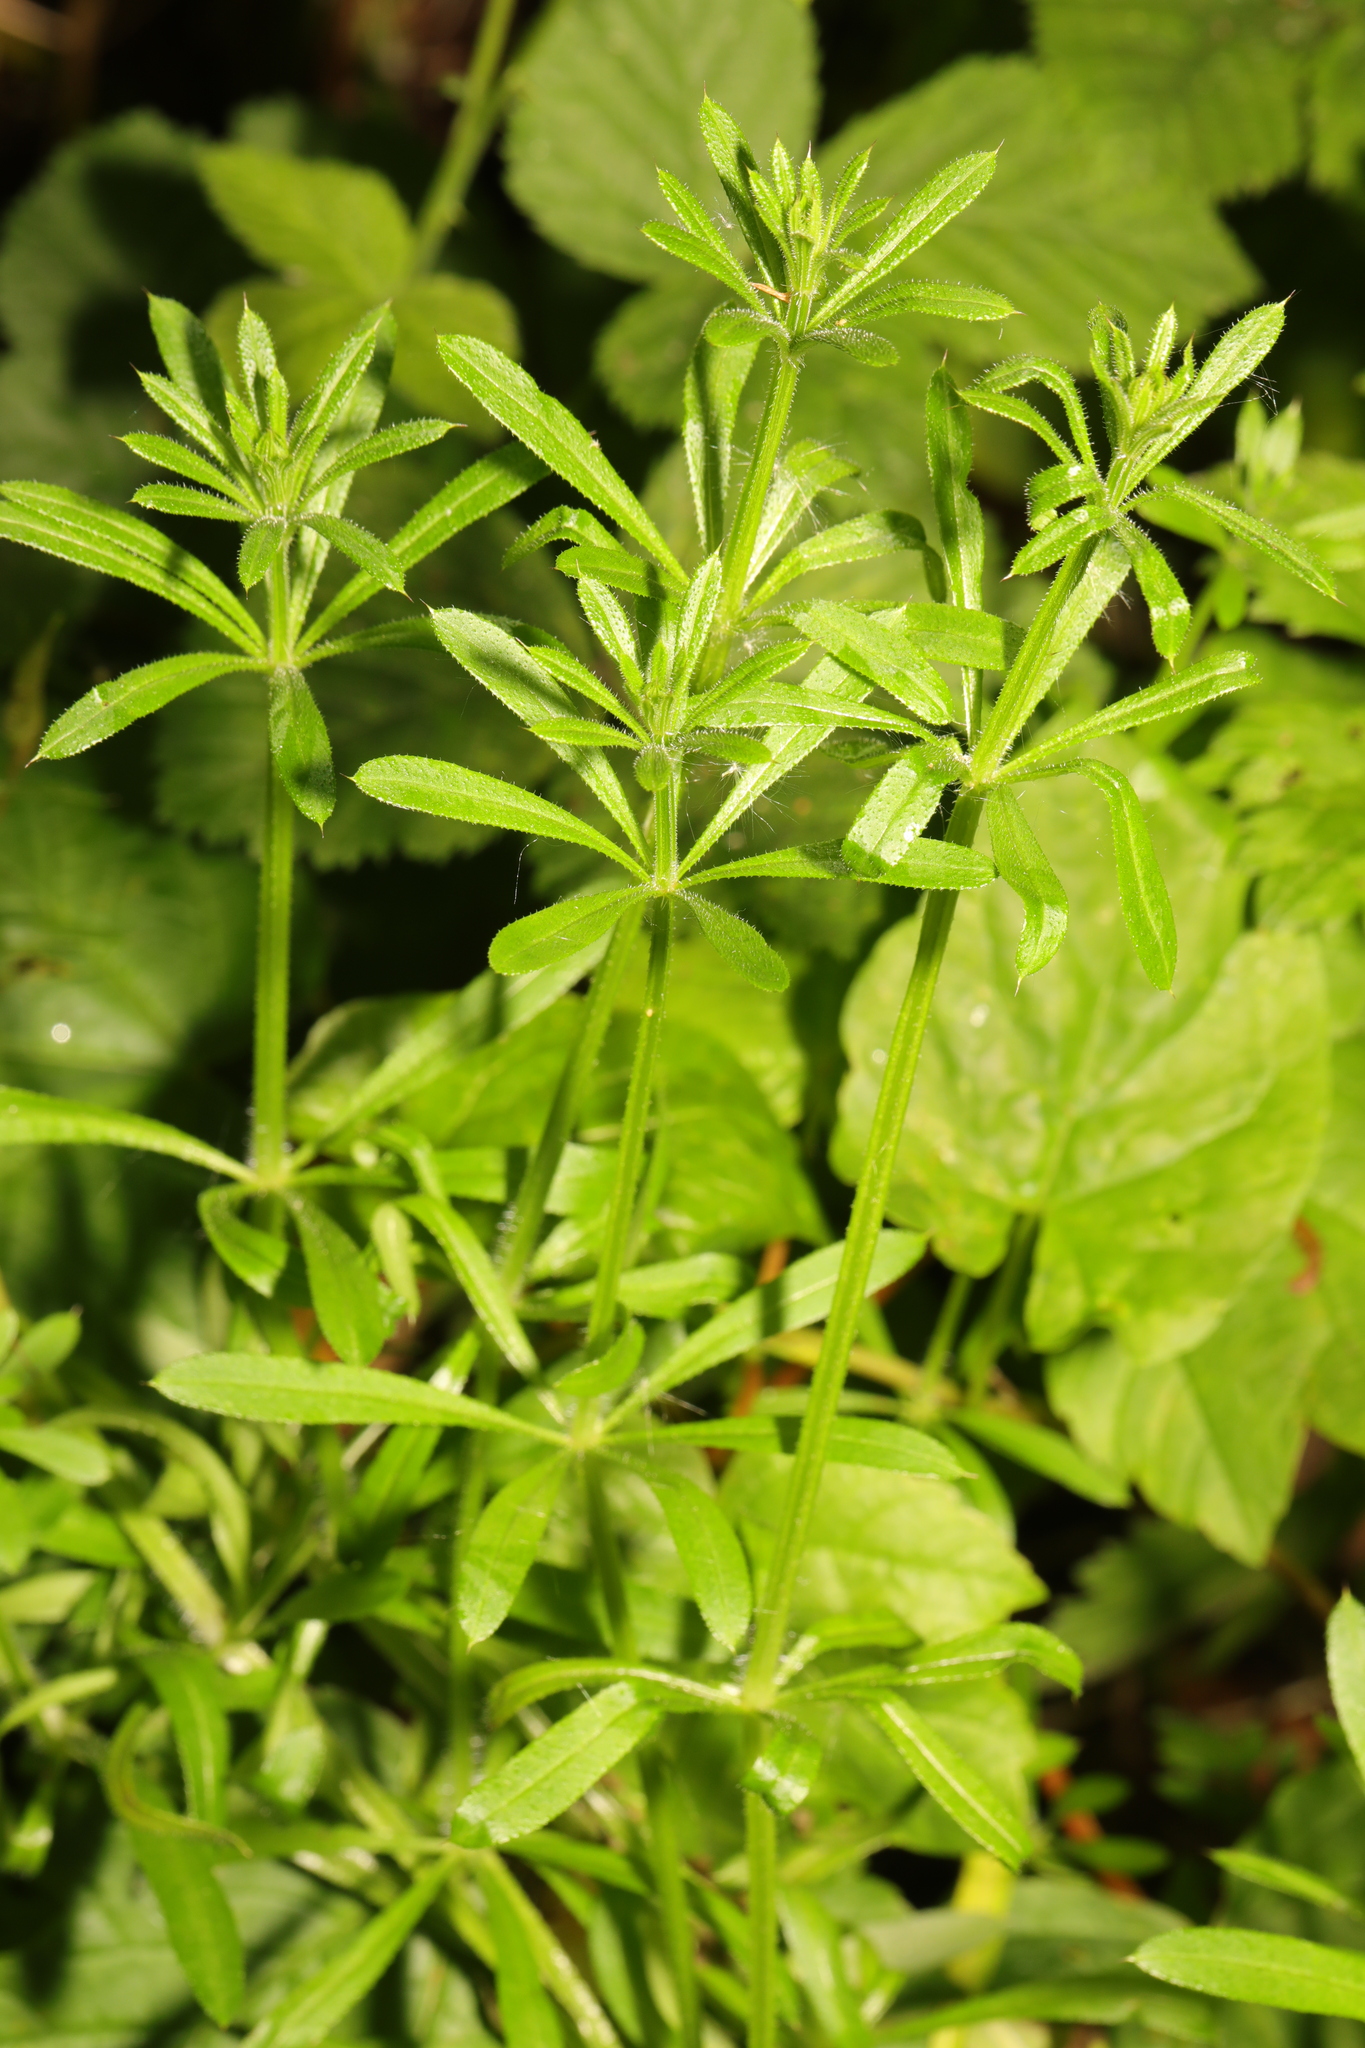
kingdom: Plantae
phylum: Tracheophyta
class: Magnoliopsida
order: Gentianales
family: Rubiaceae
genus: Galium
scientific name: Galium aparine
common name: Cleavers
